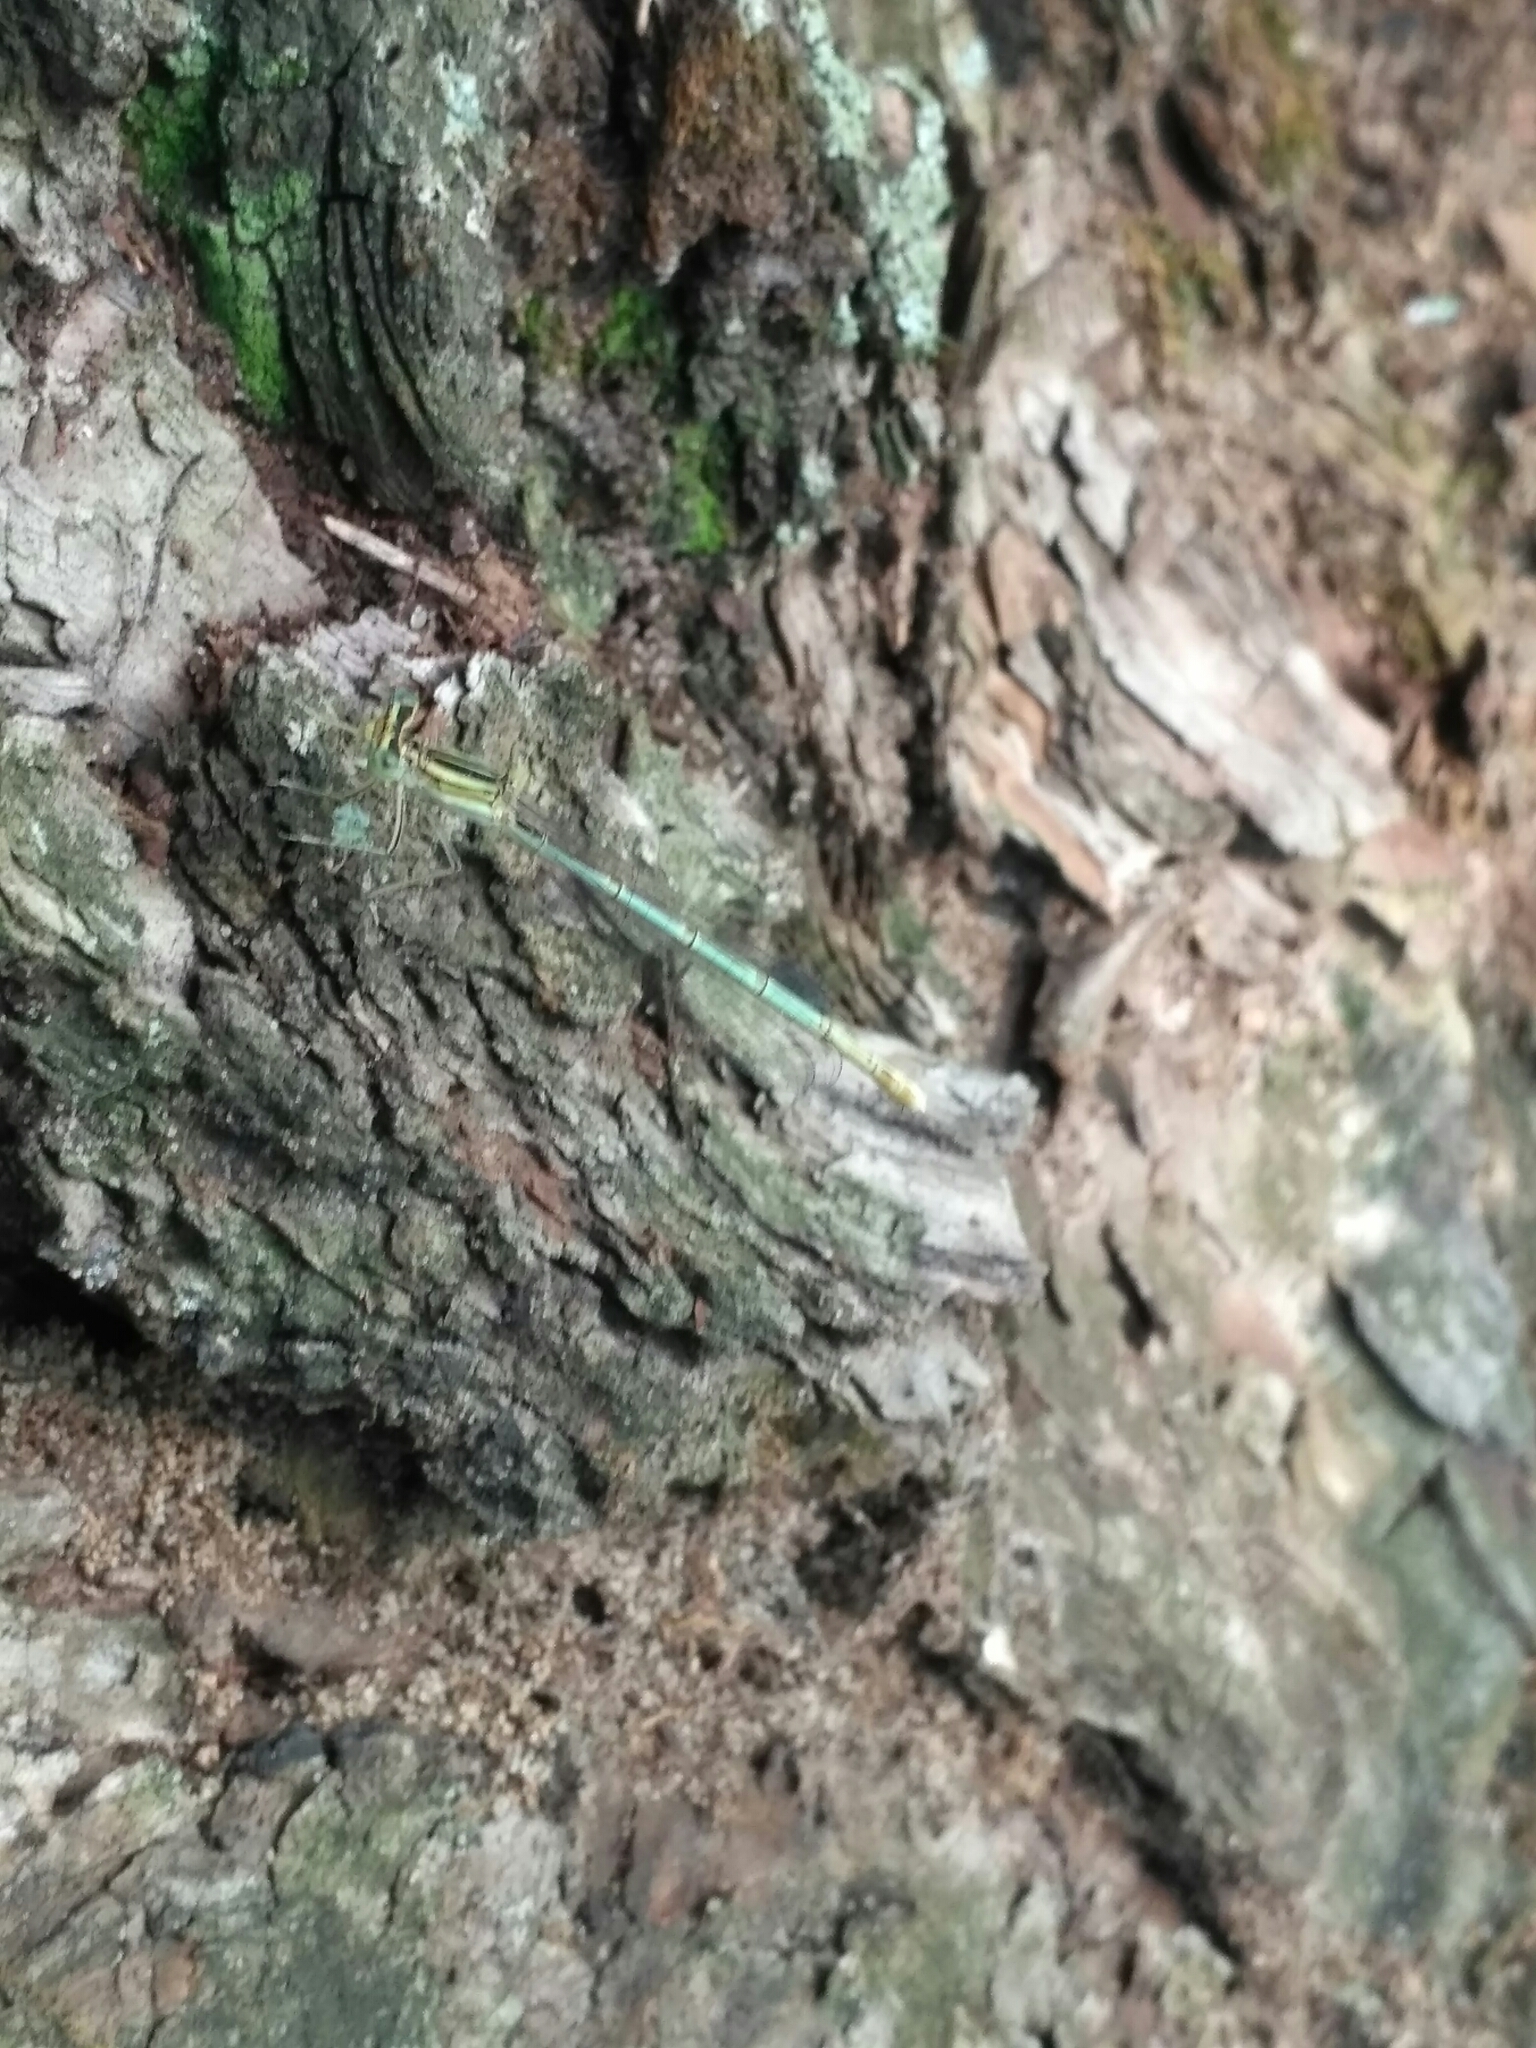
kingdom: Animalia
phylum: Arthropoda
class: Insecta
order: Odonata
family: Platycnemididae
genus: Platycnemis
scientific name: Platycnemis pennipes
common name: White-legged damselfly
